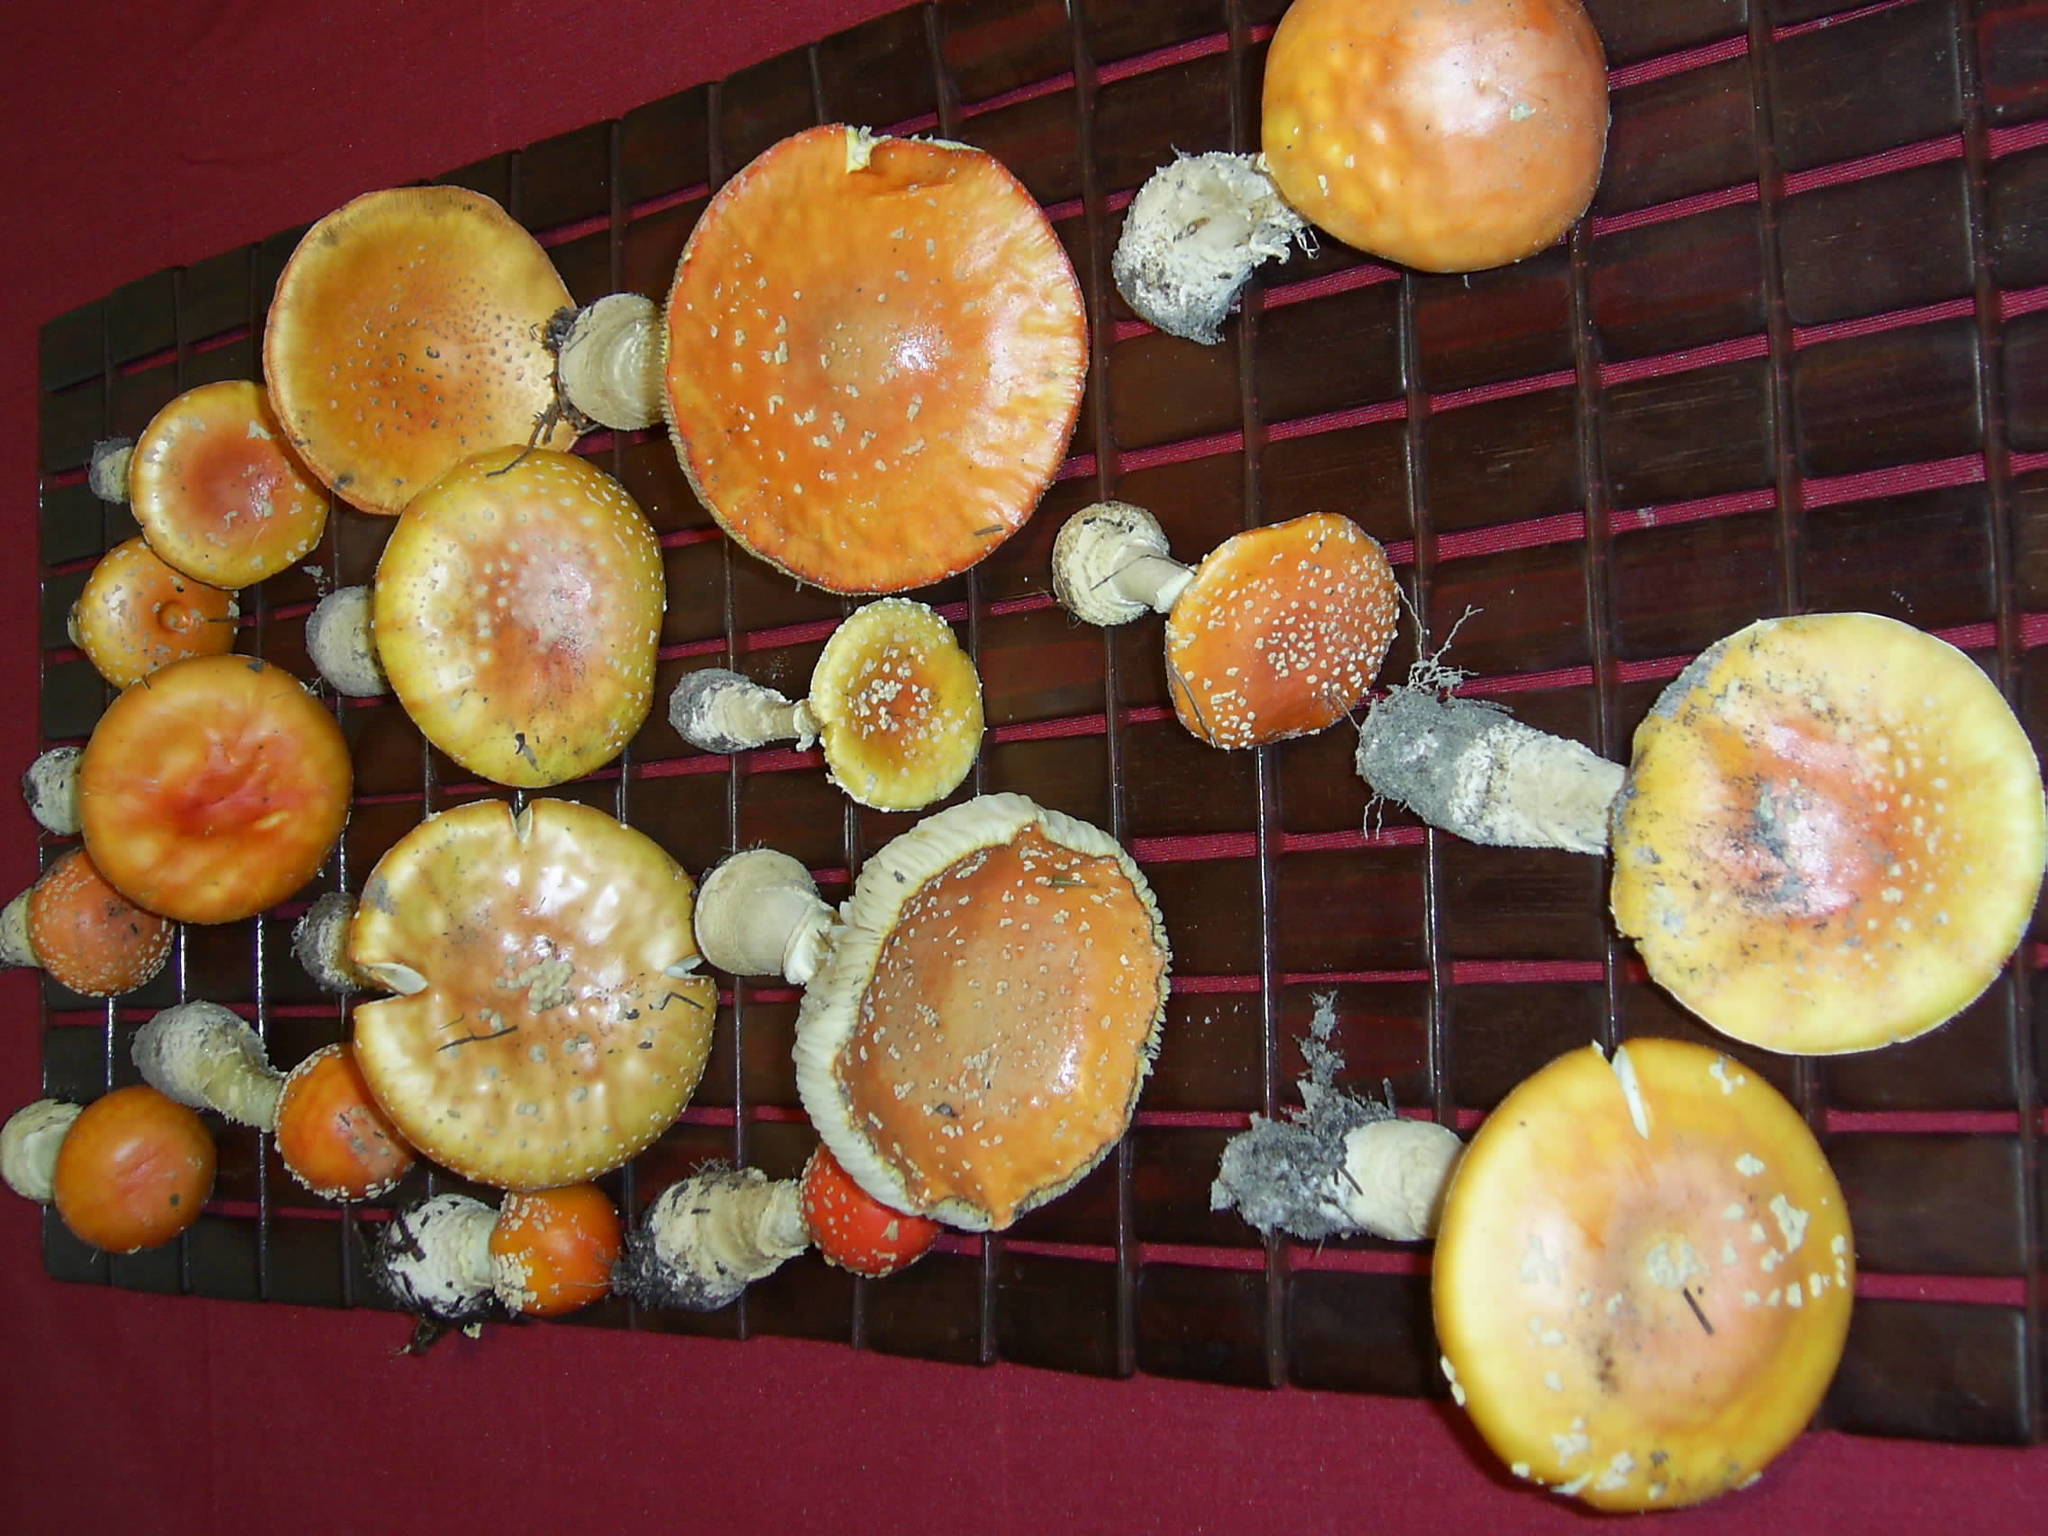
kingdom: Fungi
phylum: Basidiomycota
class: Agaricomycetes
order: Agaricales
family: Amanitaceae
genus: Amanita
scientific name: Amanita persicina
